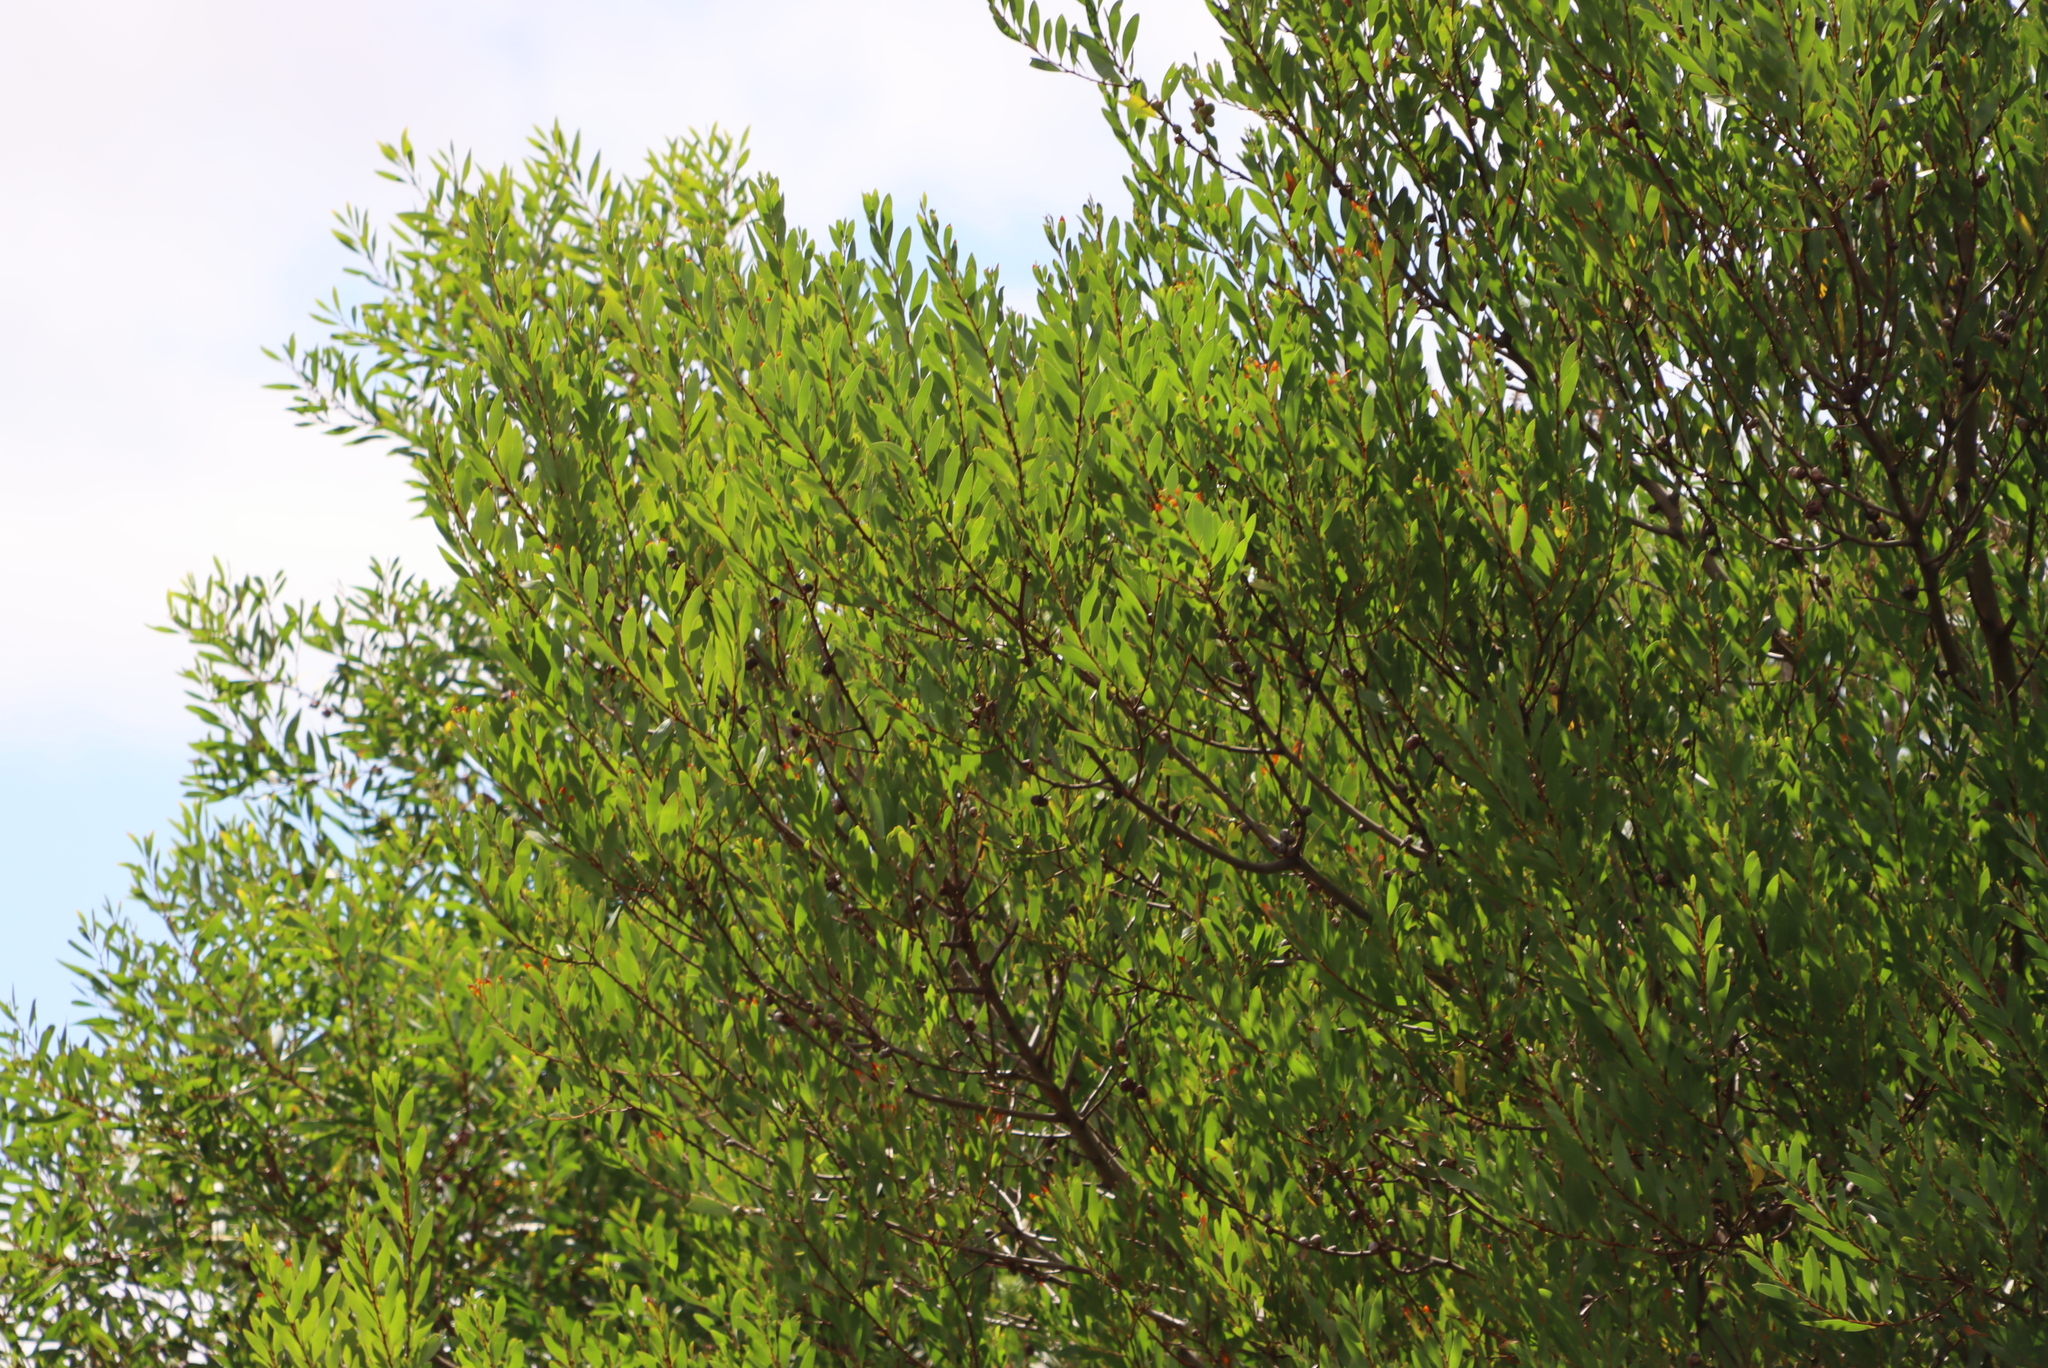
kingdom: Plantae
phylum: Tracheophyta
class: Magnoliopsida
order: Fabales
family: Fabaceae
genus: Acacia
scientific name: Acacia cyclops
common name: Coastal wattle
